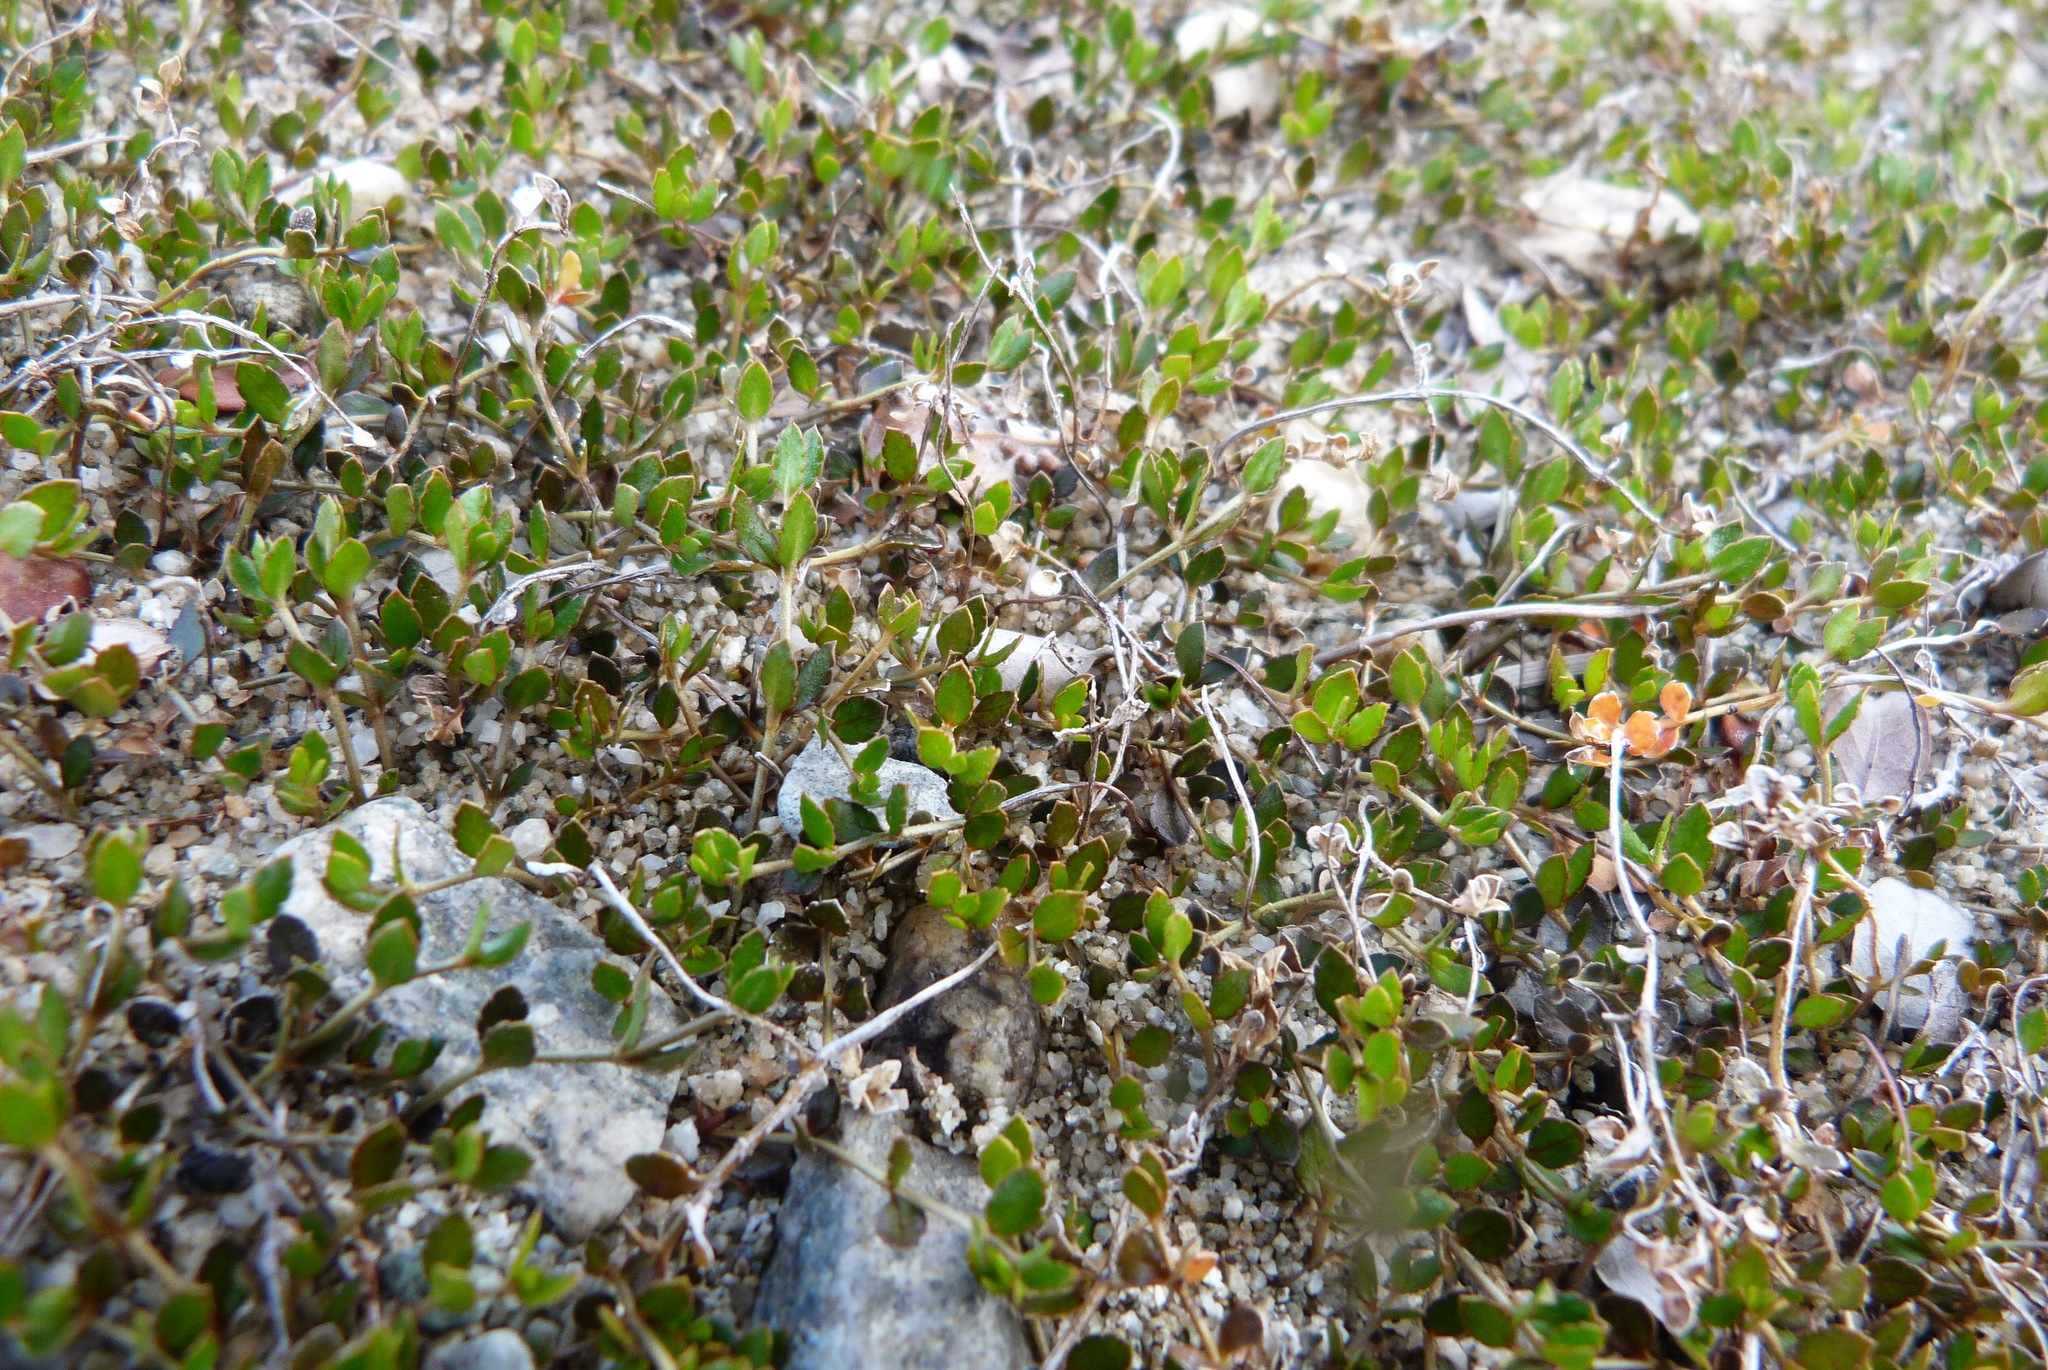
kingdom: Plantae
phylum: Tracheophyta
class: Magnoliopsida
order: Saxifragales
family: Haloragaceae
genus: Gonocarpus
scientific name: Gonocarpus aggregatus
